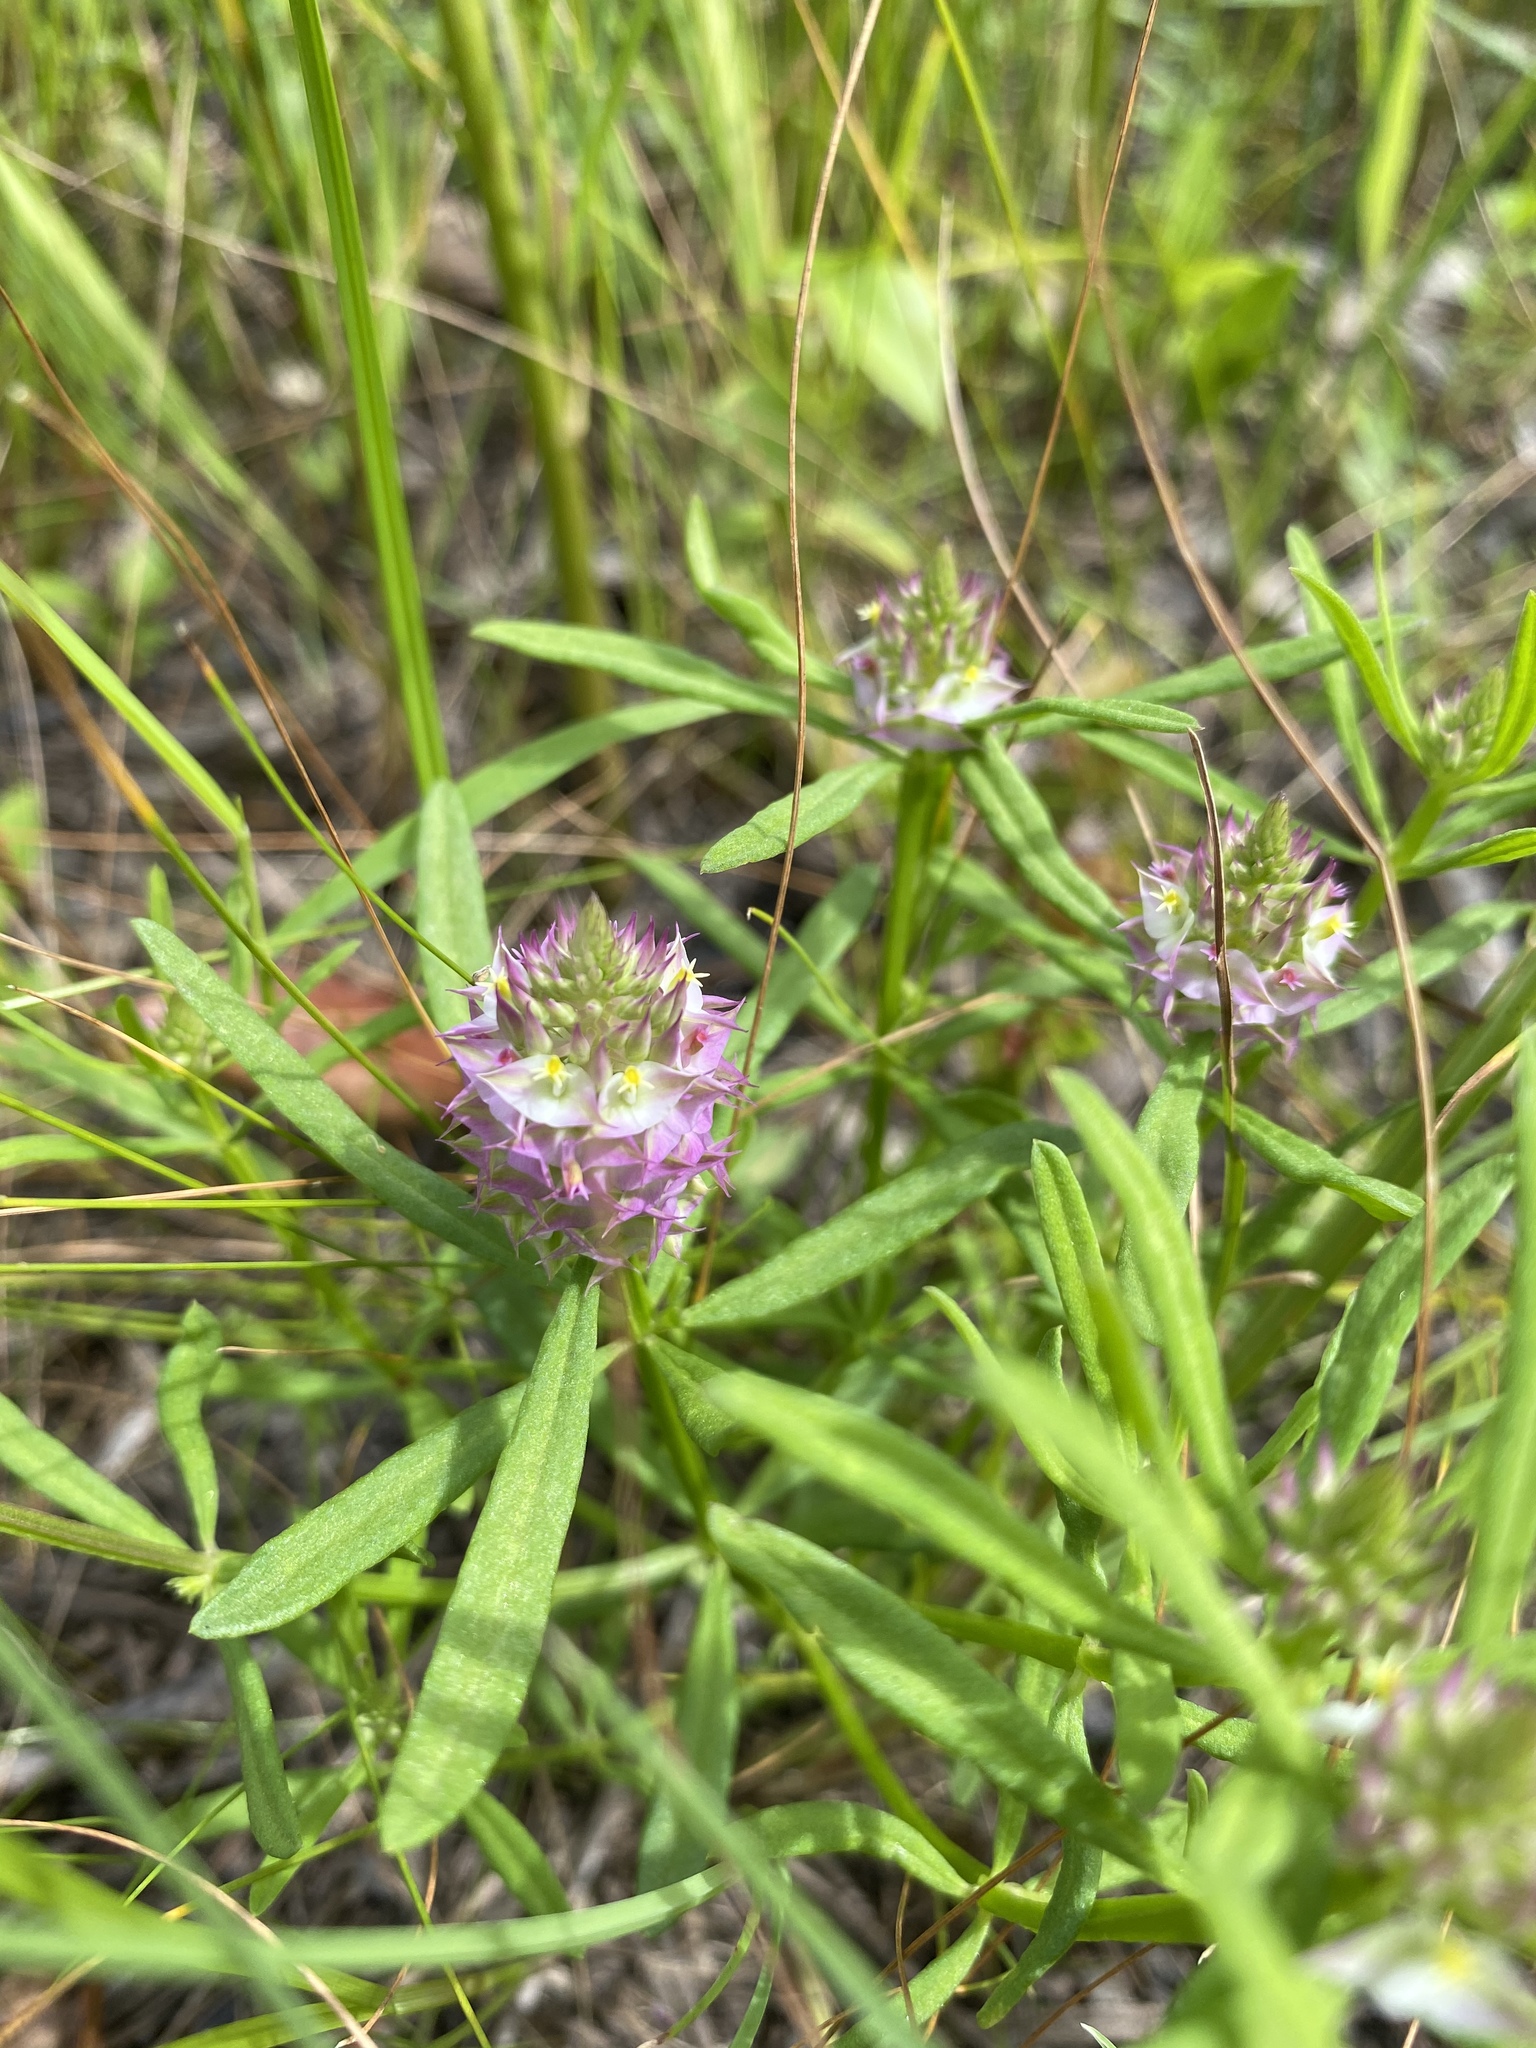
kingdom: Plantae
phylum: Tracheophyta
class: Magnoliopsida
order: Fabales
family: Polygalaceae
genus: Polygala
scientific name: Polygala cruciata
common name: Drumheads
